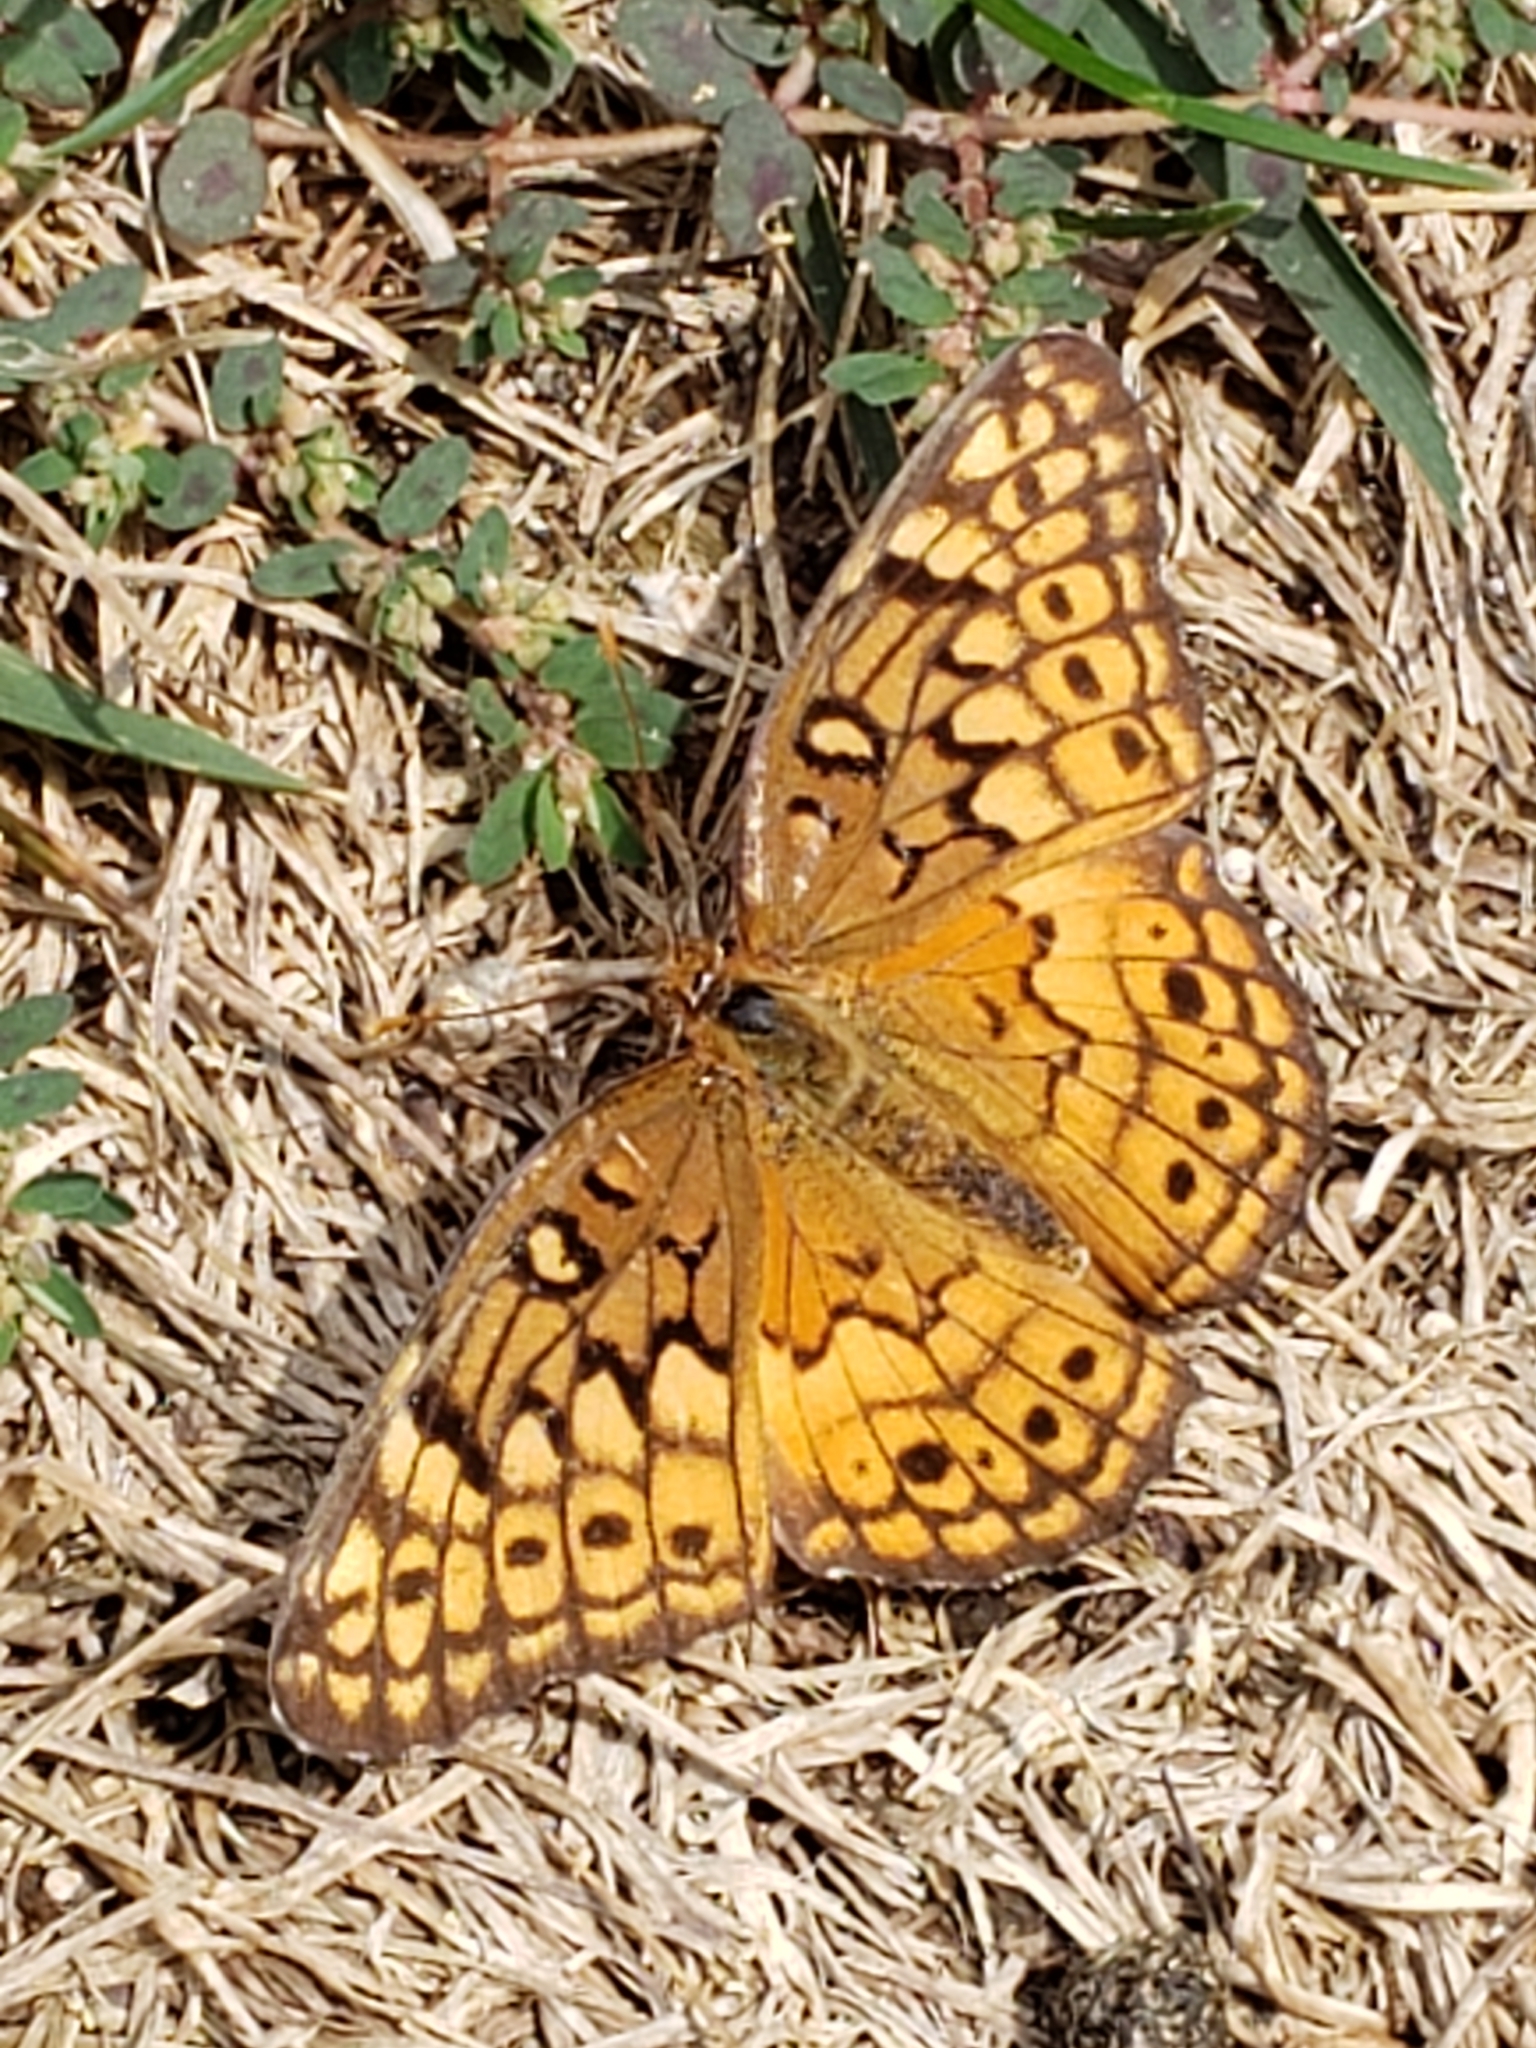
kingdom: Animalia
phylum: Arthropoda
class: Insecta
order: Lepidoptera
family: Nymphalidae
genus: Euptoieta
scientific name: Euptoieta claudia
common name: Variegated fritillary
